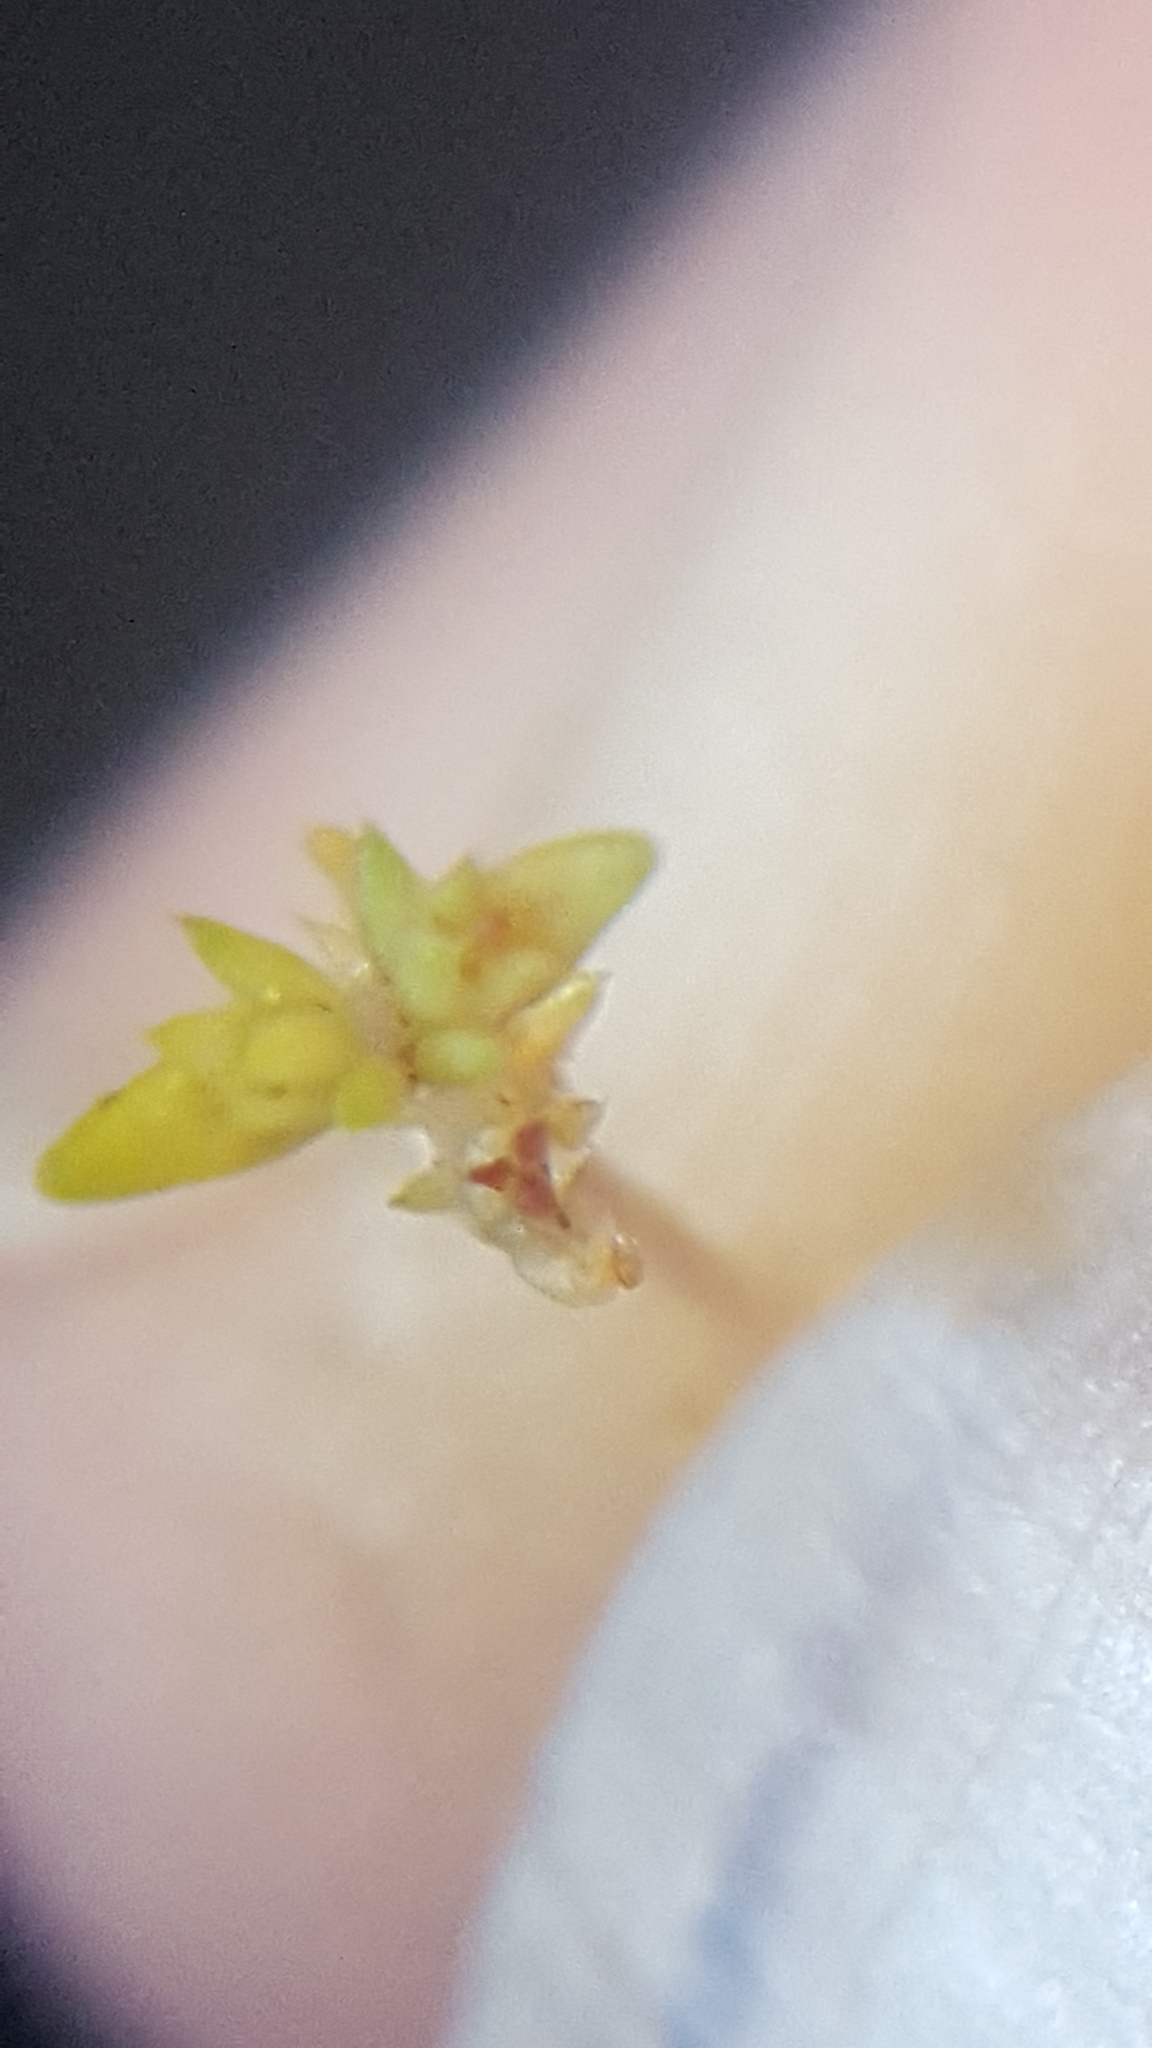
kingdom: Plantae
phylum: Tracheophyta
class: Magnoliopsida
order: Saxifragales
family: Crassulaceae
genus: Crassula
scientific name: Crassula tillaea
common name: Mossy stonecrop
